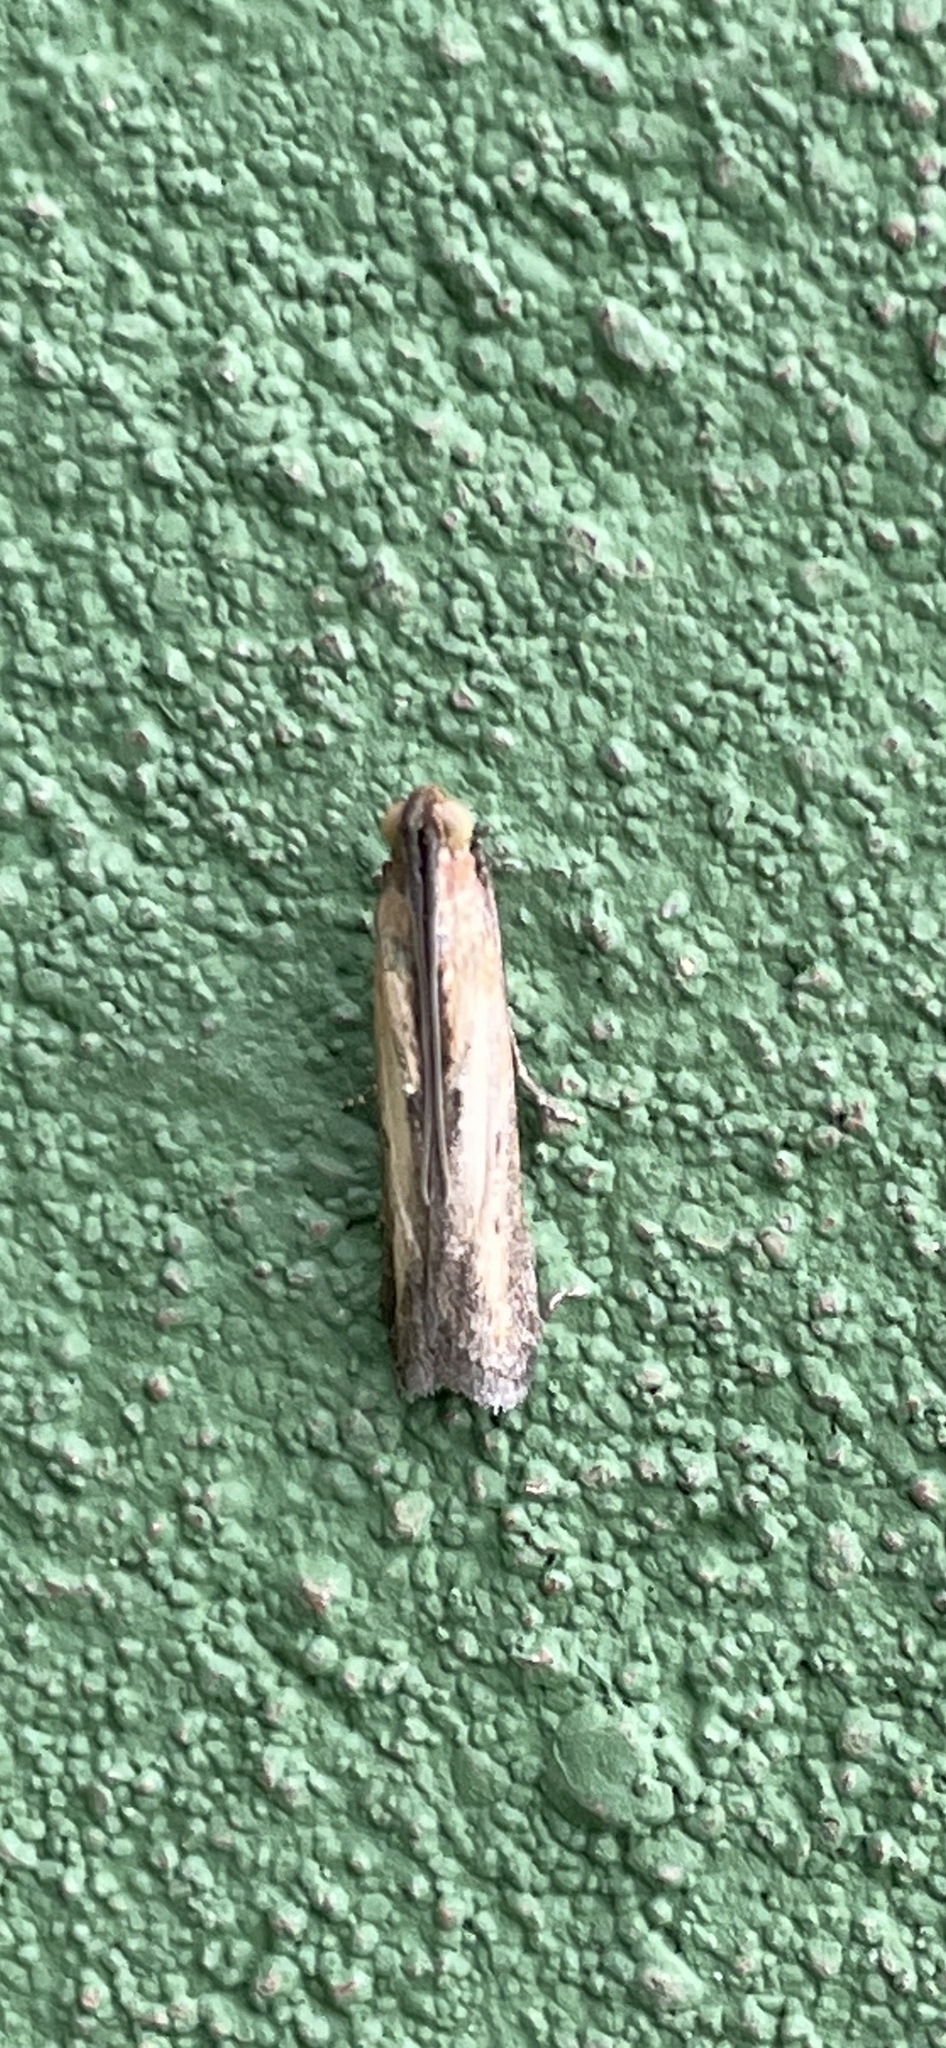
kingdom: Animalia
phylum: Arthropoda
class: Insecta
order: Lepidoptera
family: Pyralidae
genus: Elasmopalpus
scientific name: Elasmopalpus lignosella
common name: Lesser cornstalk borer
